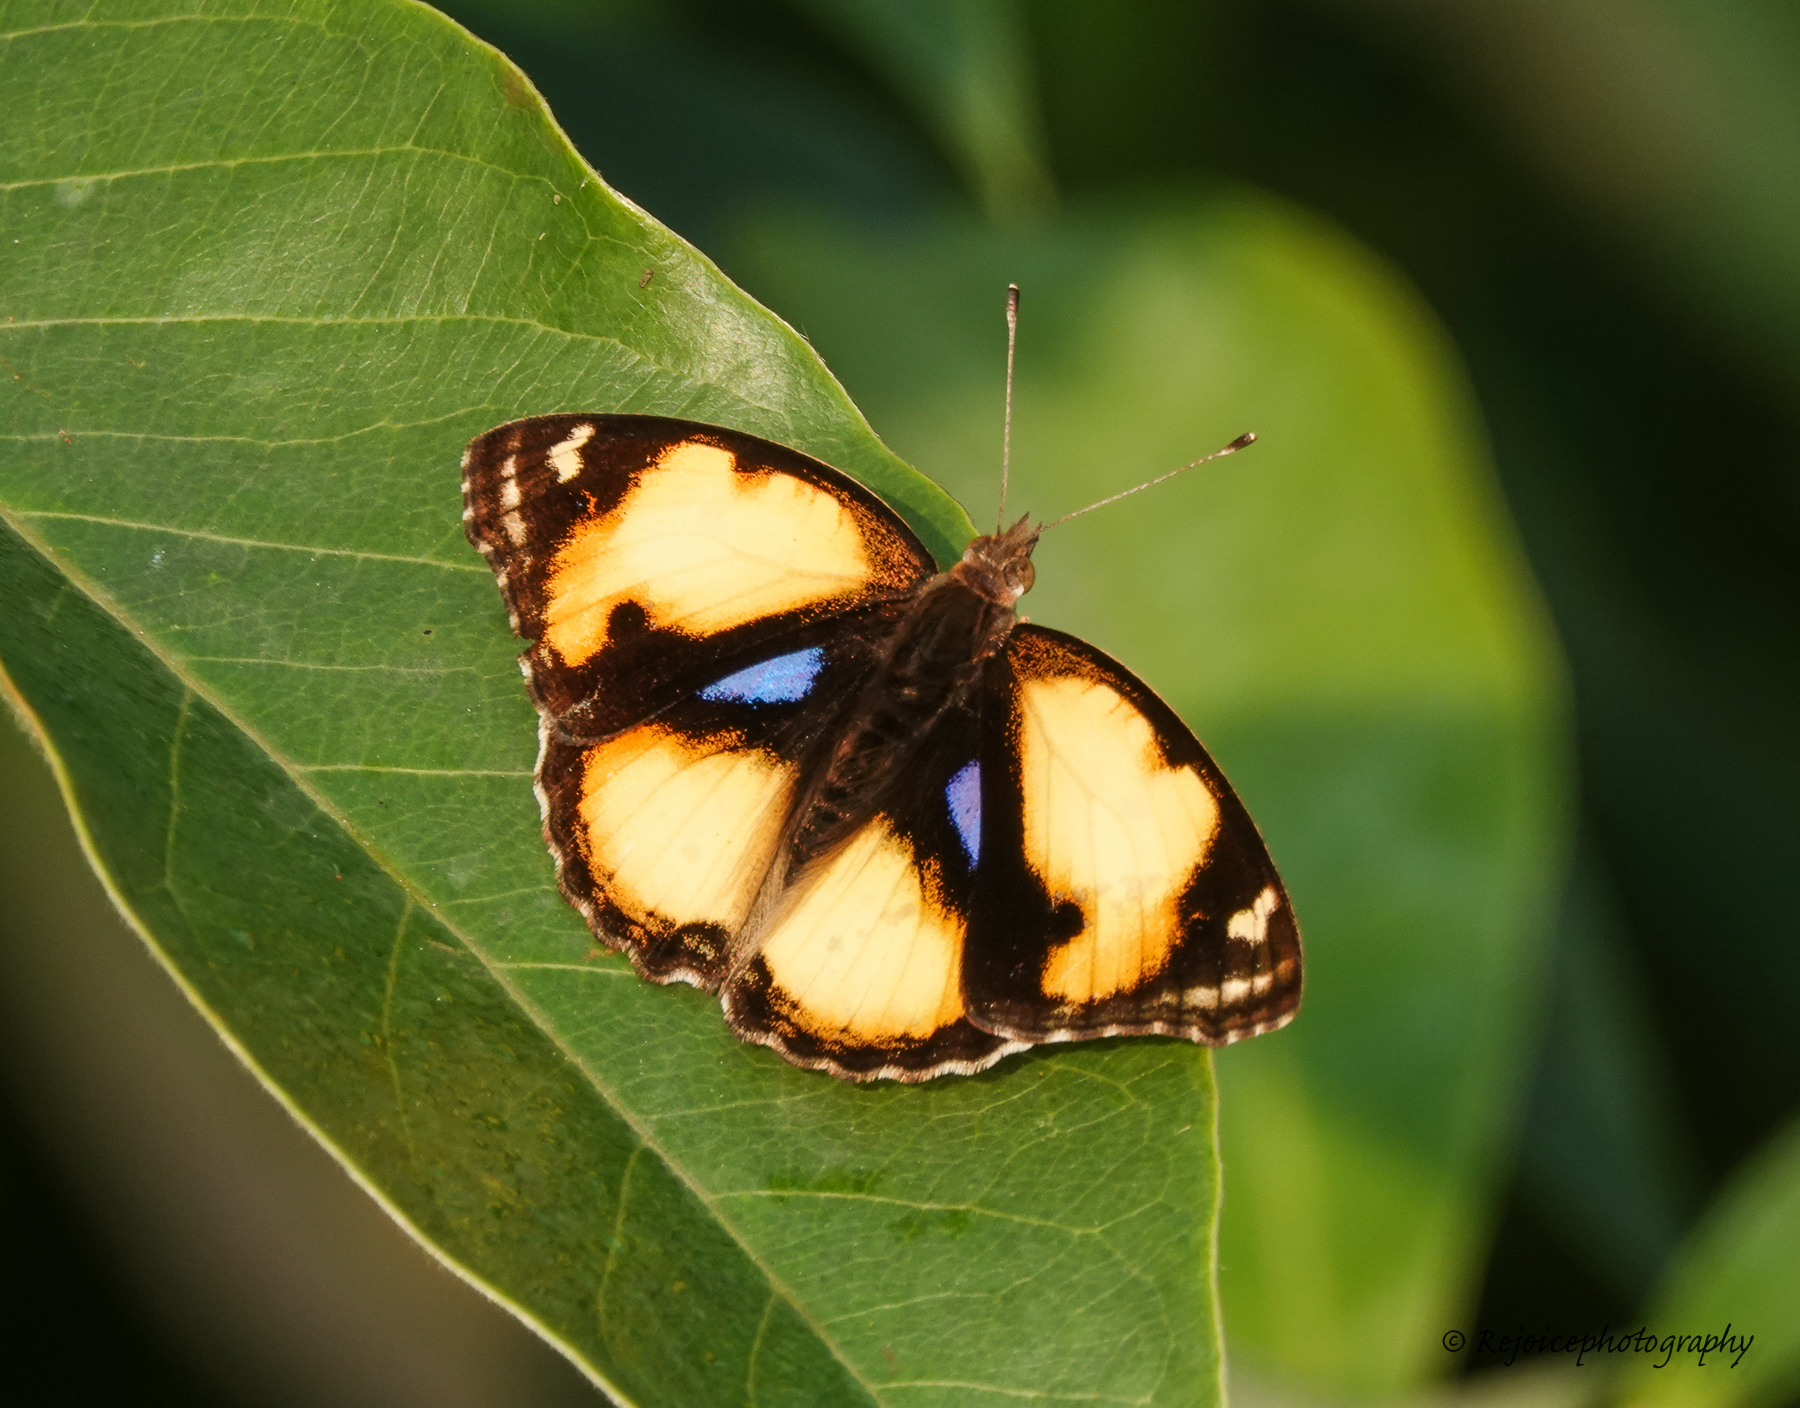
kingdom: Animalia
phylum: Arthropoda
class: Insecta
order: Lepidoptera
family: Nymphalidae
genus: Junonia
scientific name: Junonia hierta
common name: Yellow pansy
